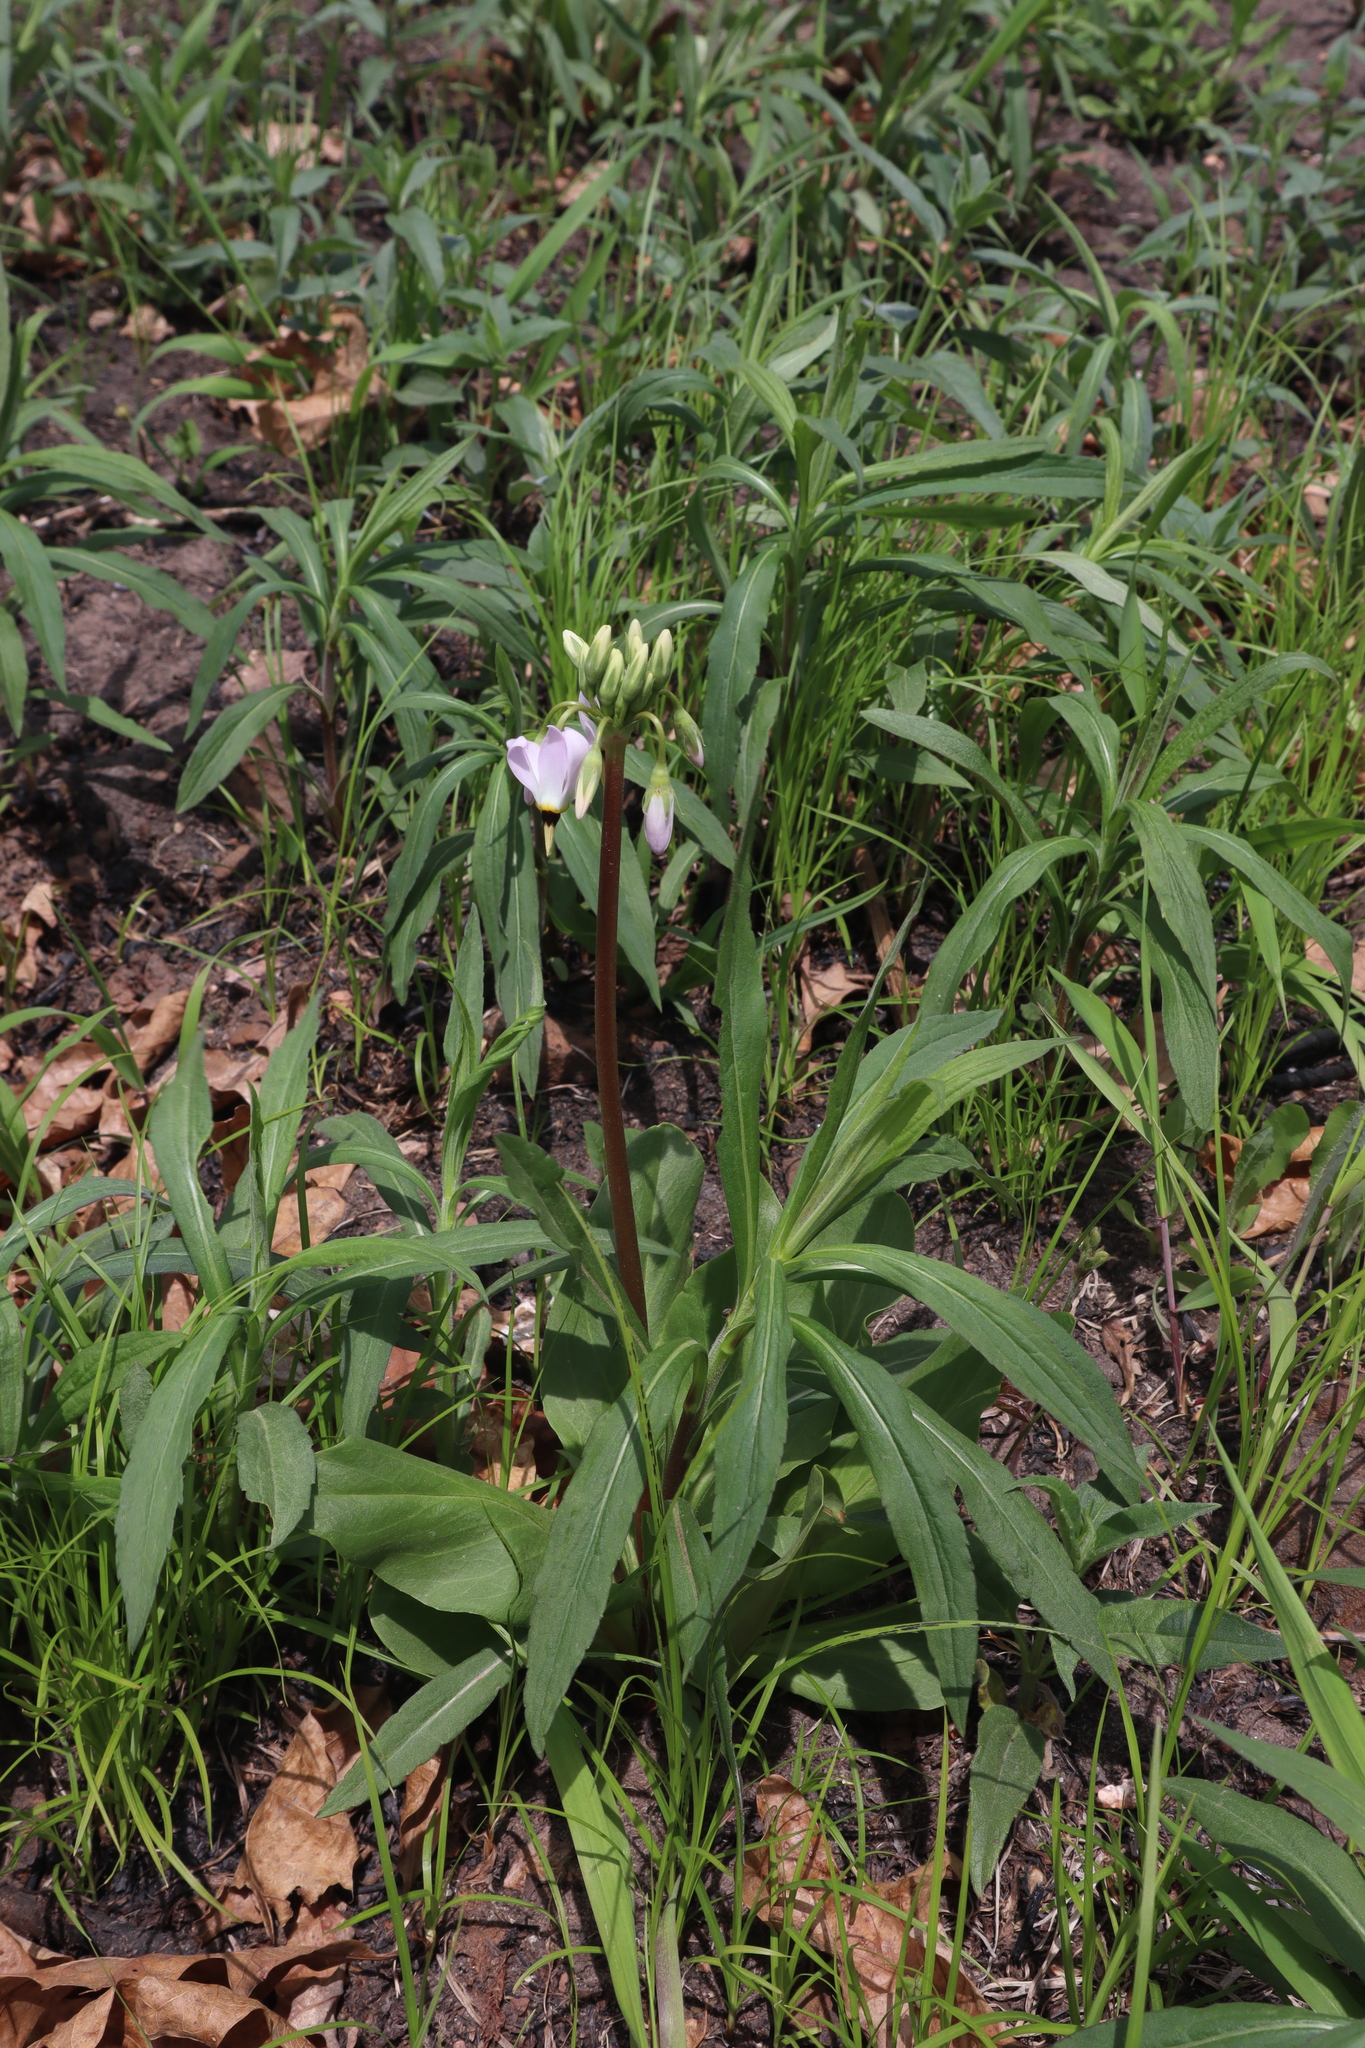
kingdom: Plantae
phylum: Tracheophyta
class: Magnoliopsida
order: Ericales
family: Primulaceae
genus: Dodecatheon
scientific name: Dodecatheon meadia
